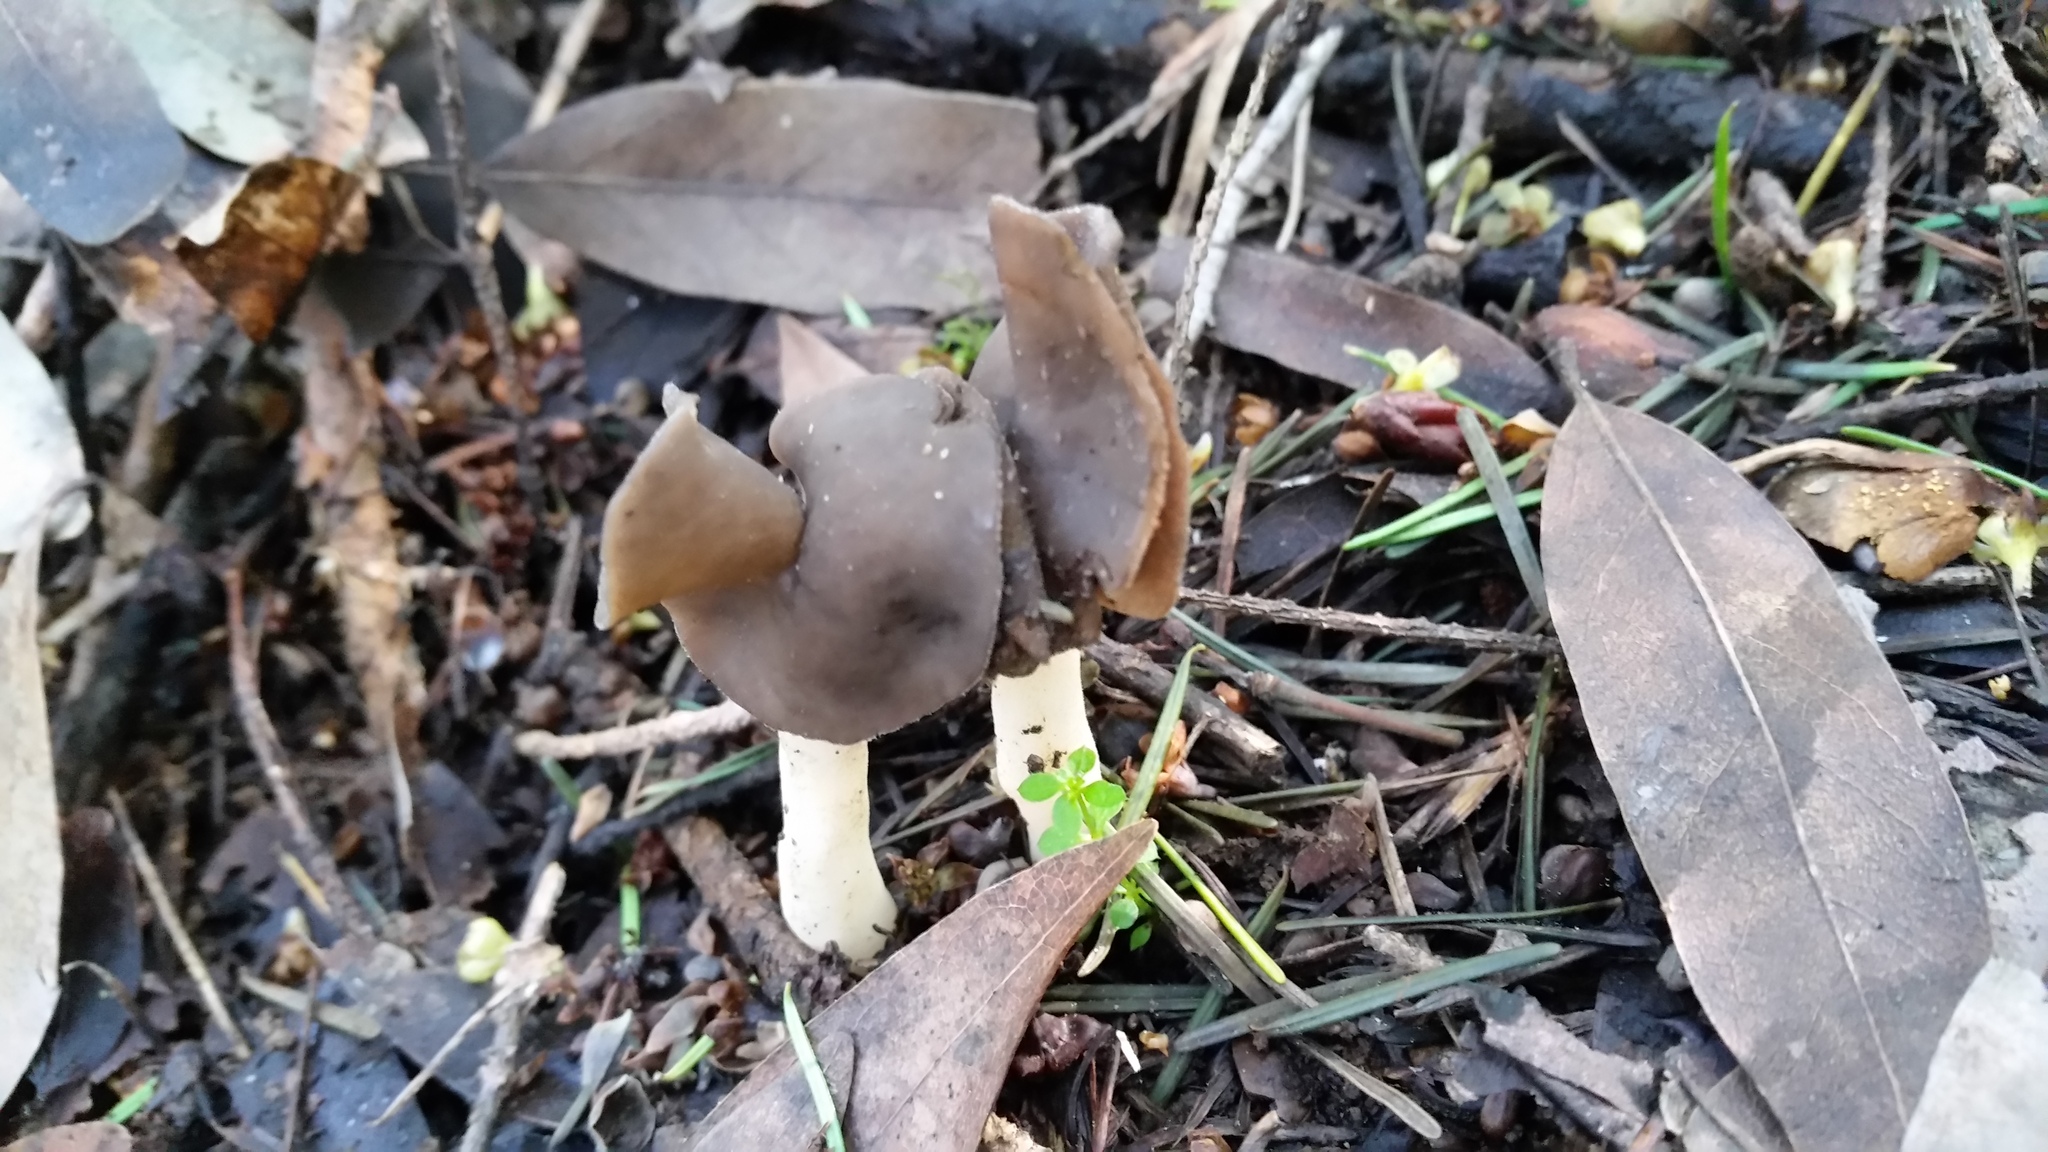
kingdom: Fungi
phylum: Ascomycota
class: Pezizomycetes
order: Pezizales
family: Helvellaceae
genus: Helvella
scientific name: Helvella compressa
